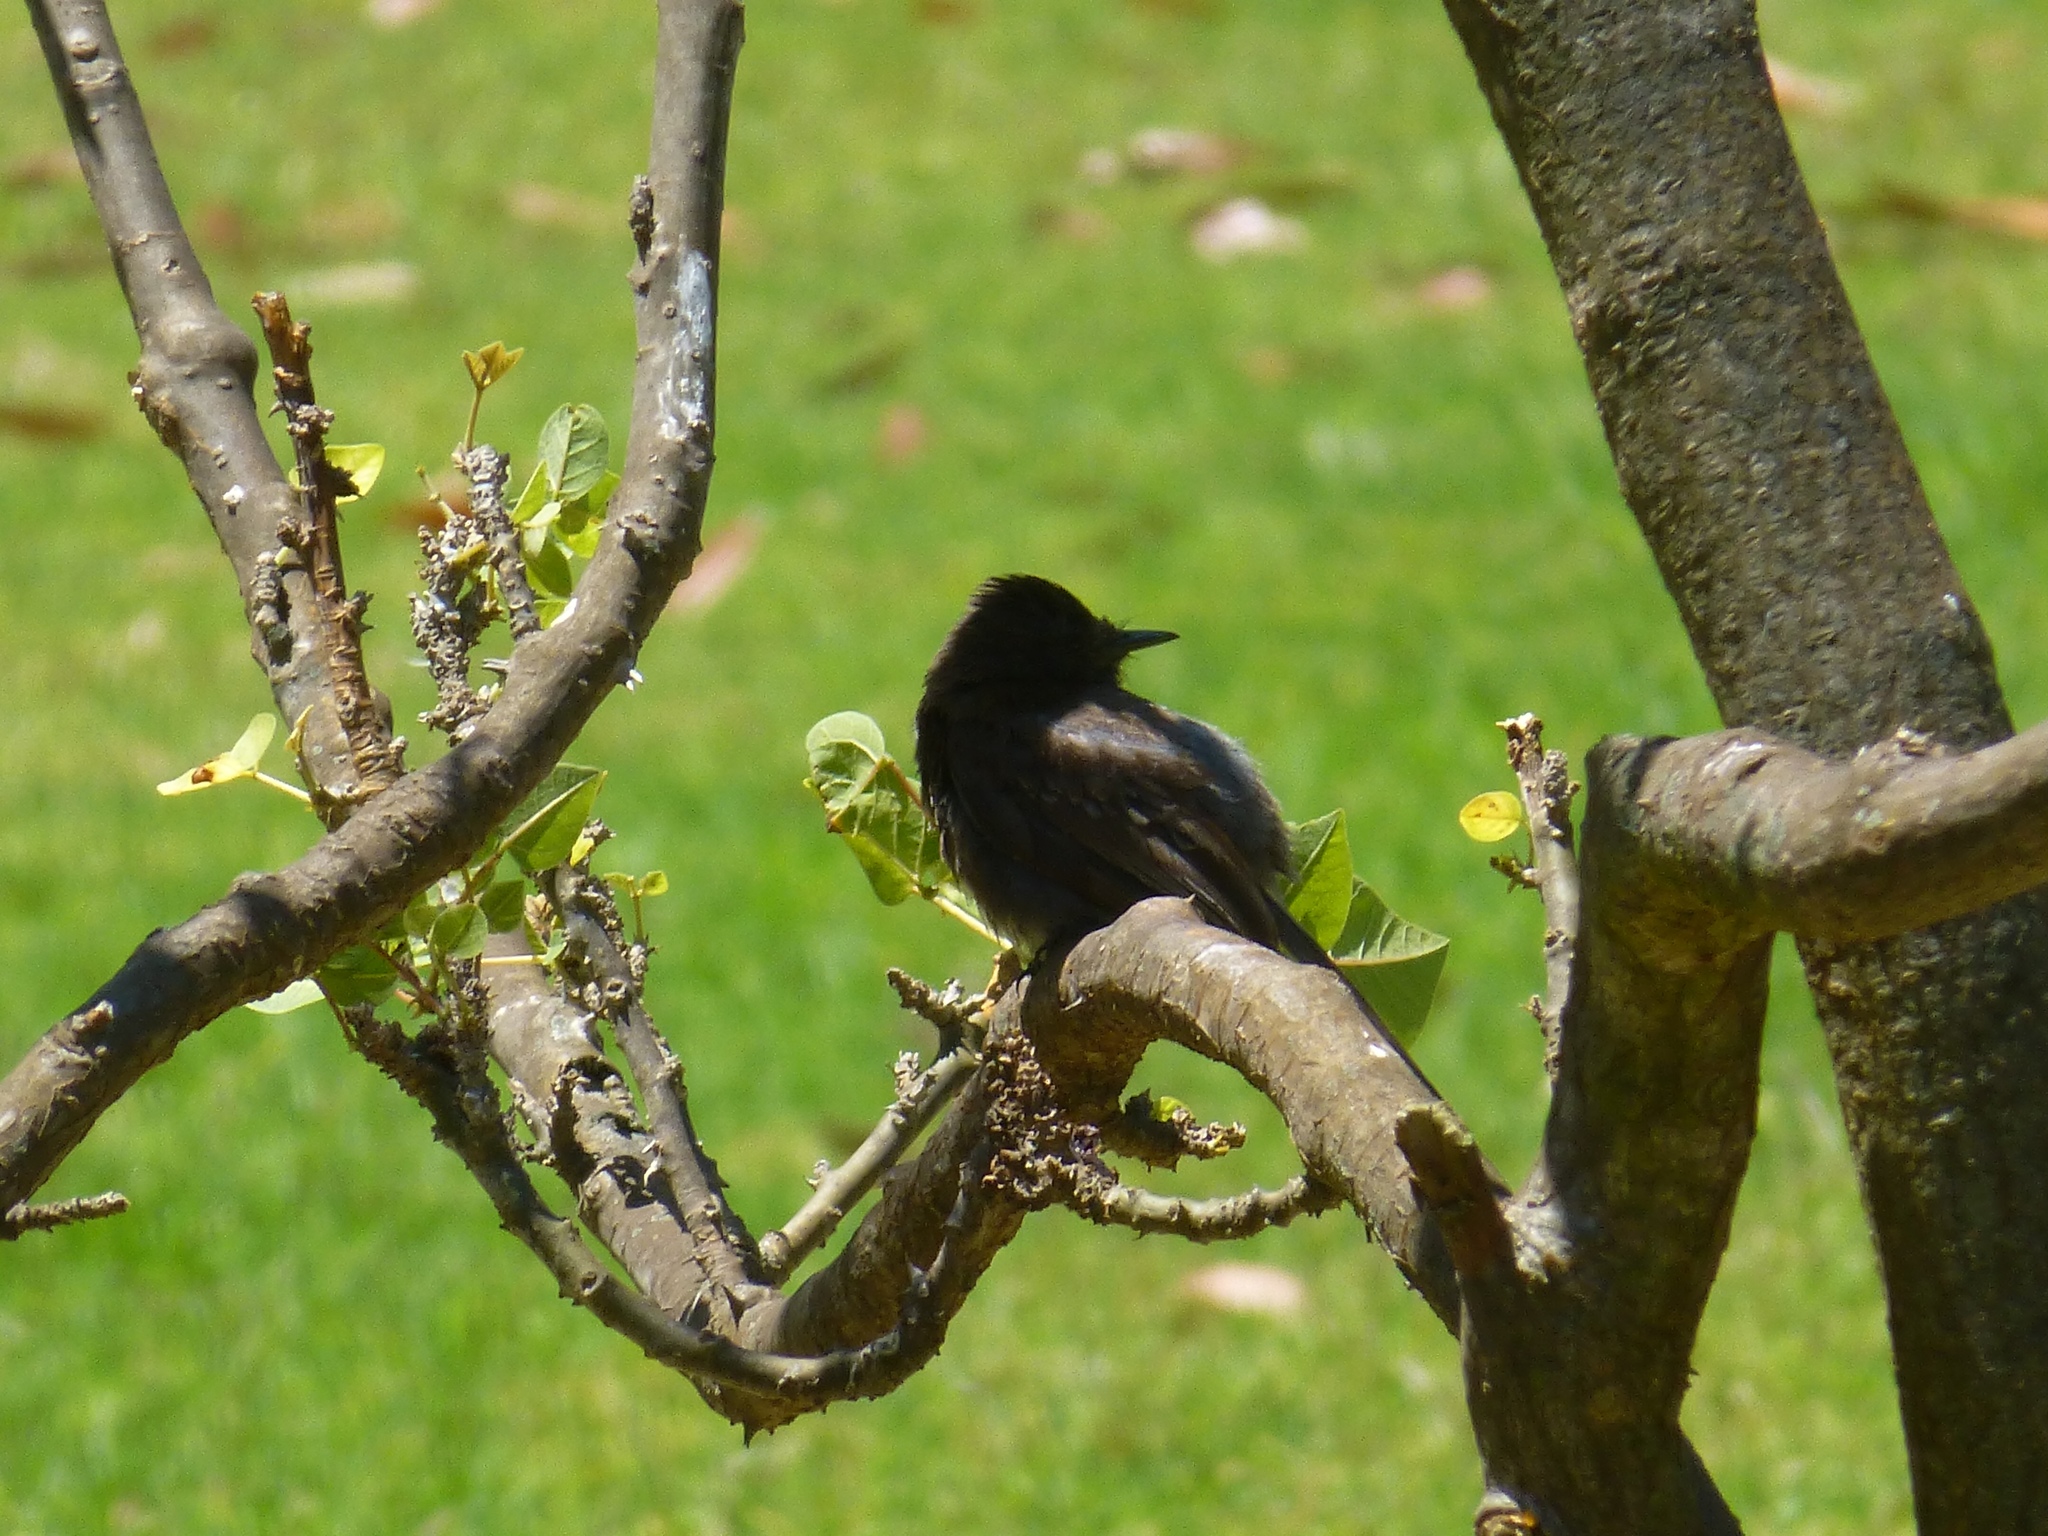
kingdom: Animalia
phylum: Chordata
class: Aves
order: Passeriformes
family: Tyrannidae
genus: Sayornis
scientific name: Sayornis nigricans
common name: Black phoebe
